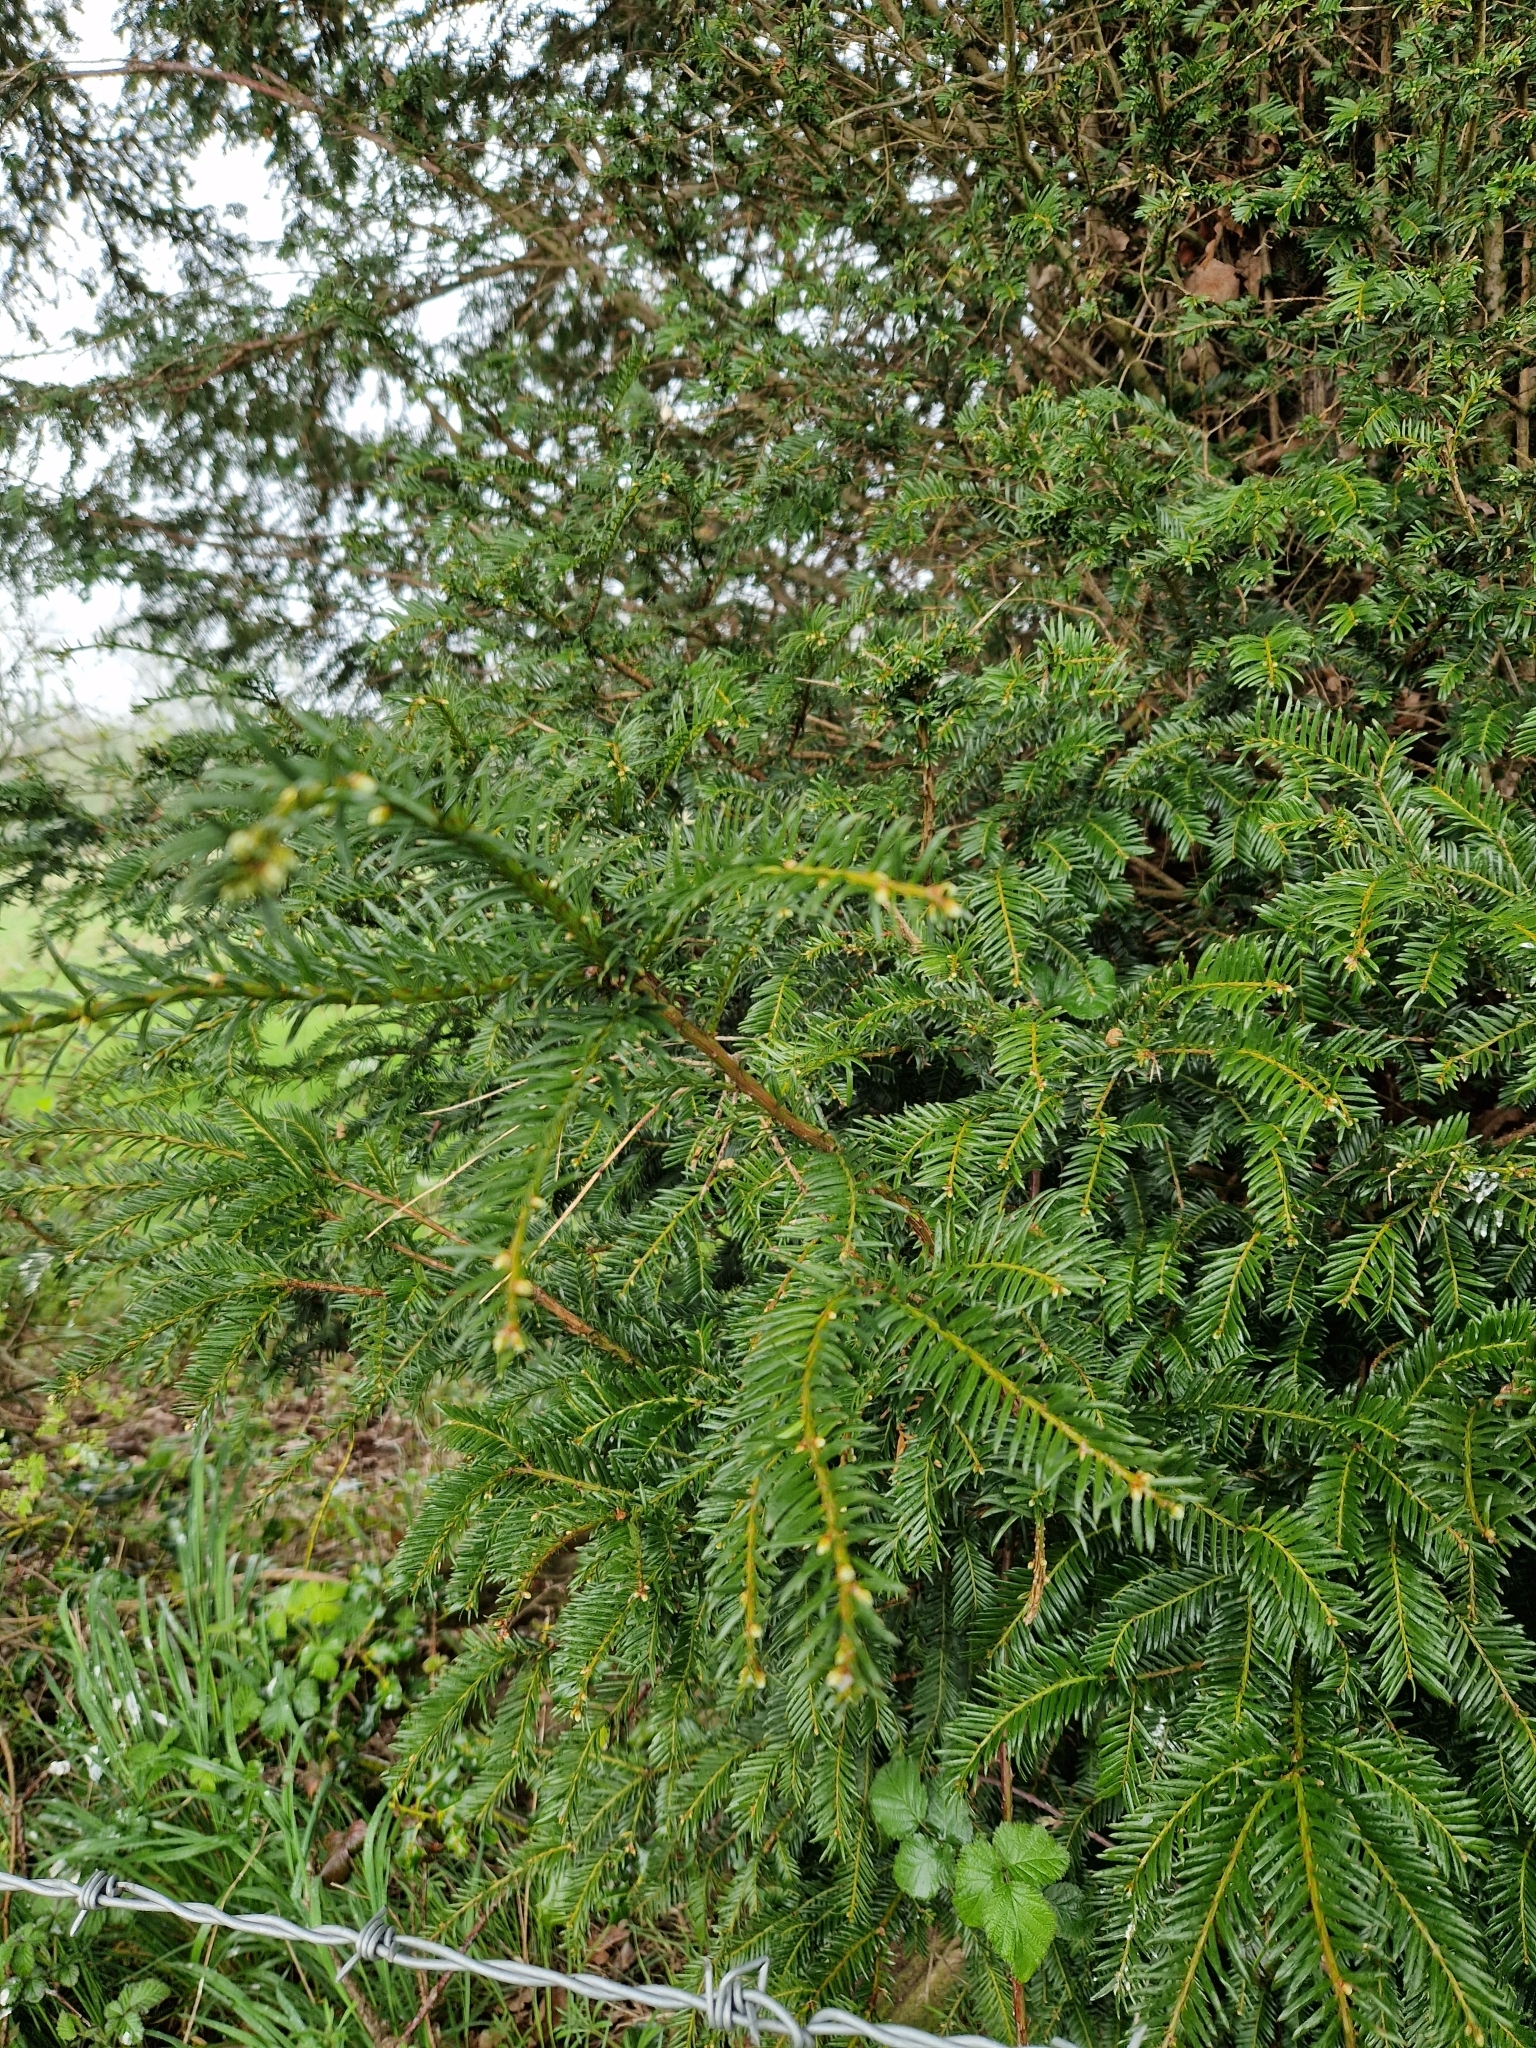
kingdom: Plantae
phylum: Tracheophyta
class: Pinopsida
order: Pinales
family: Taxaceae
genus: Taxus
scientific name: Taxus baccata
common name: Yew
